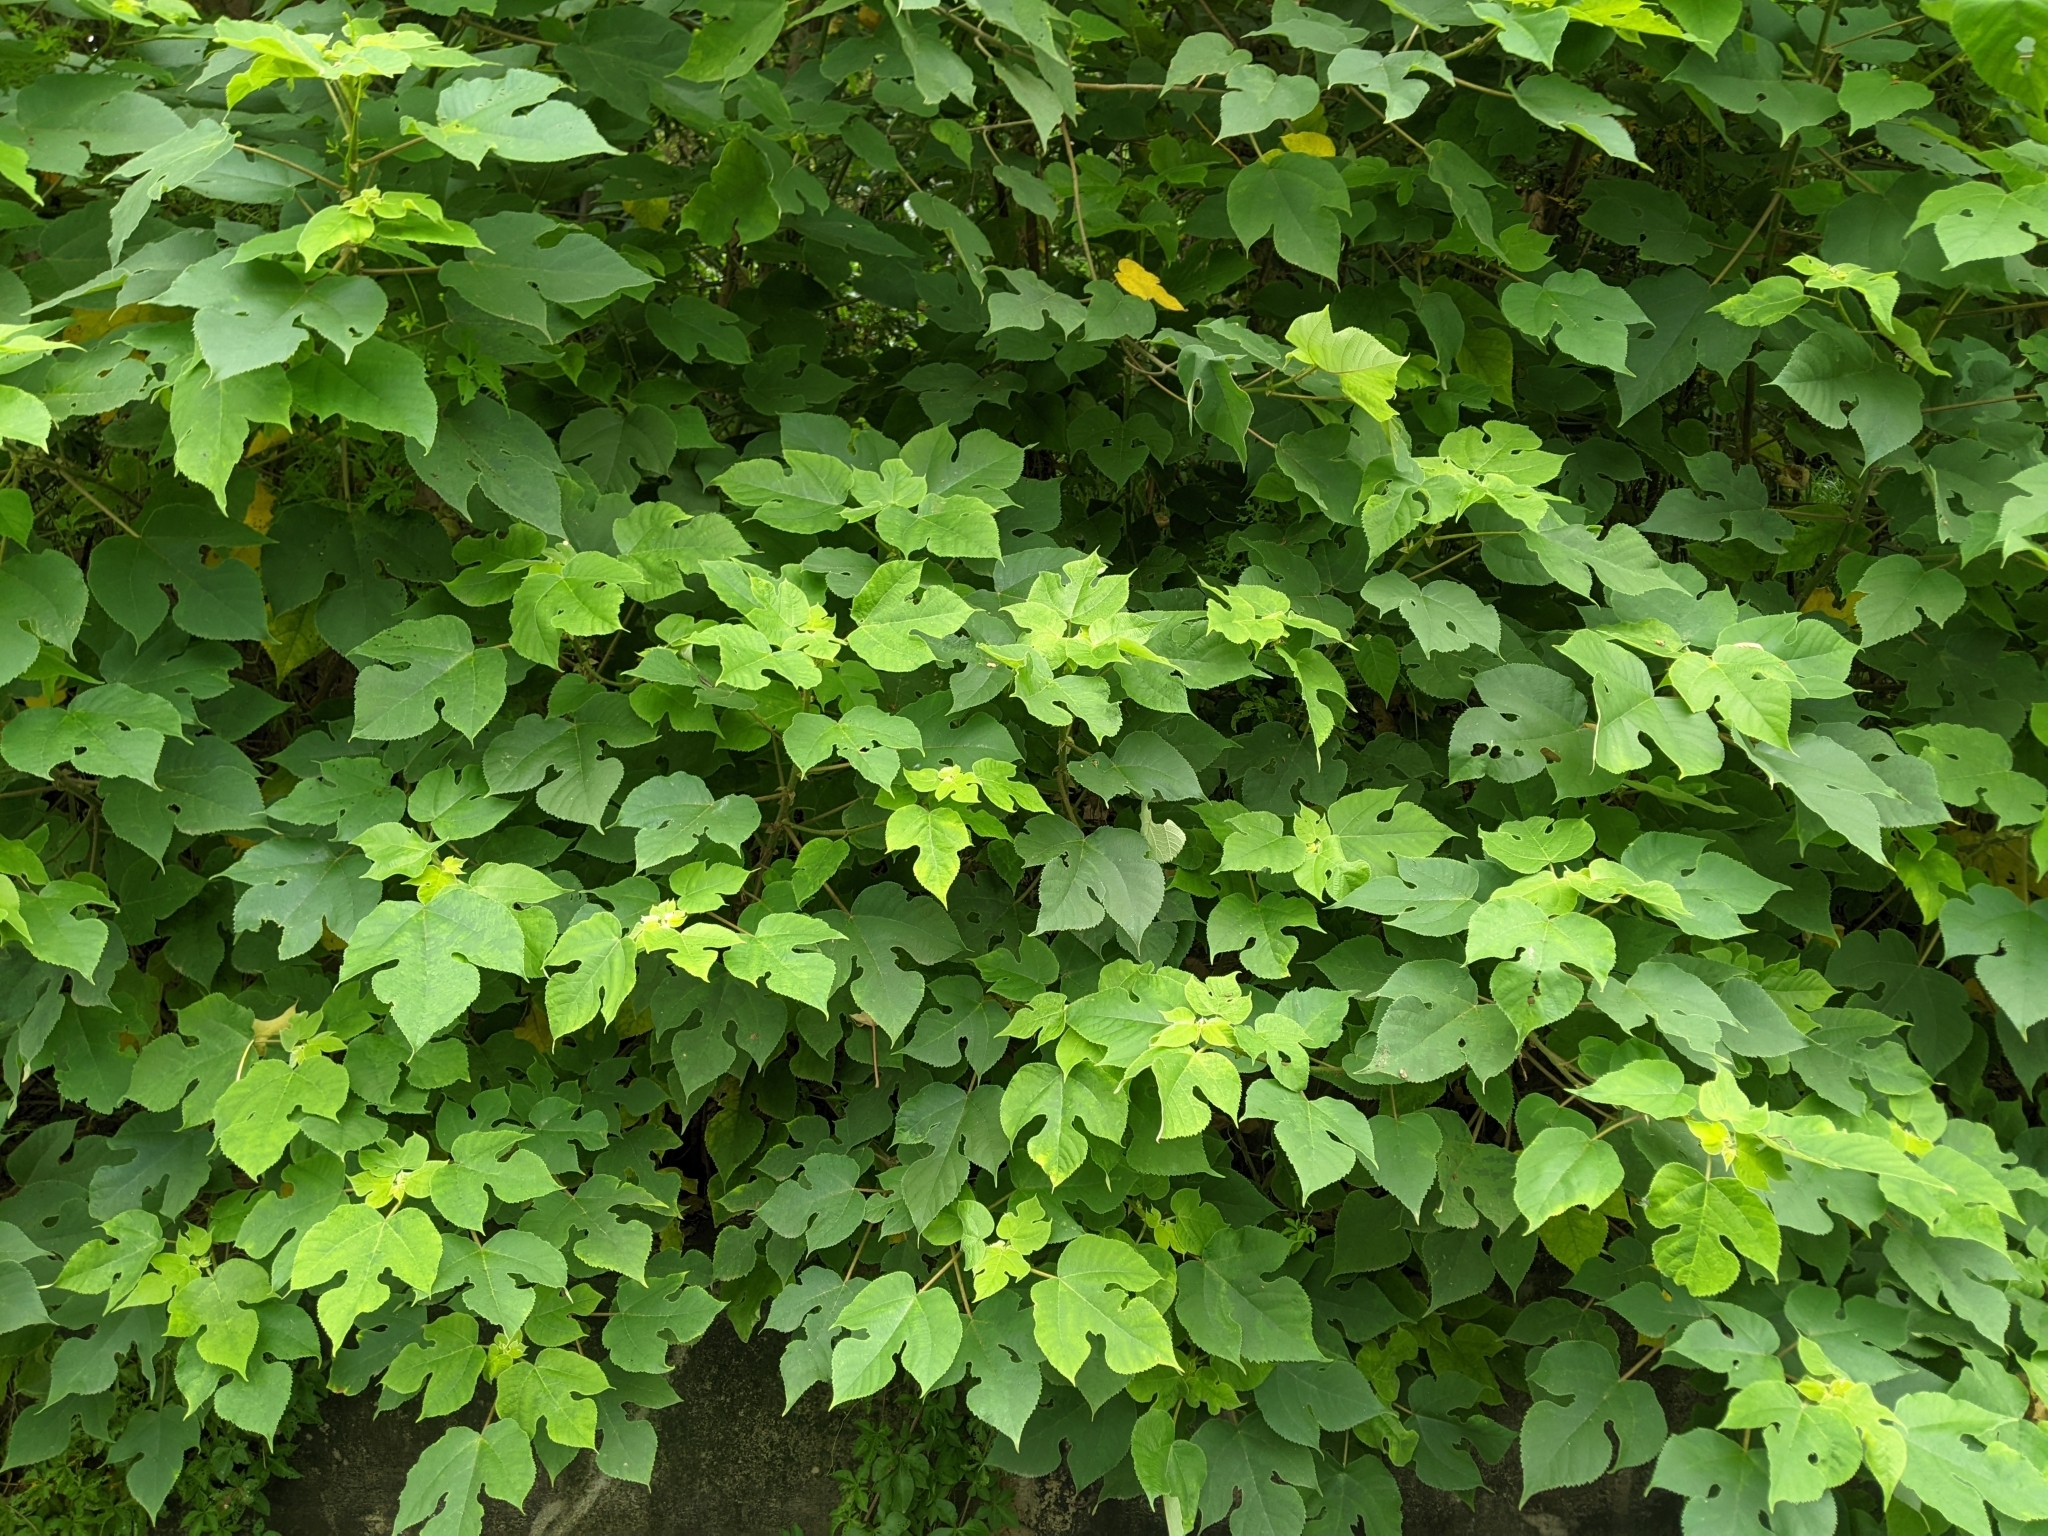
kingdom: Plantae
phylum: Tracheophyta
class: Magnoliopsida
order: Rosales
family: Moraceae
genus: Broussonetia
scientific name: Broussonetia papyrifera
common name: Paper mulberry
